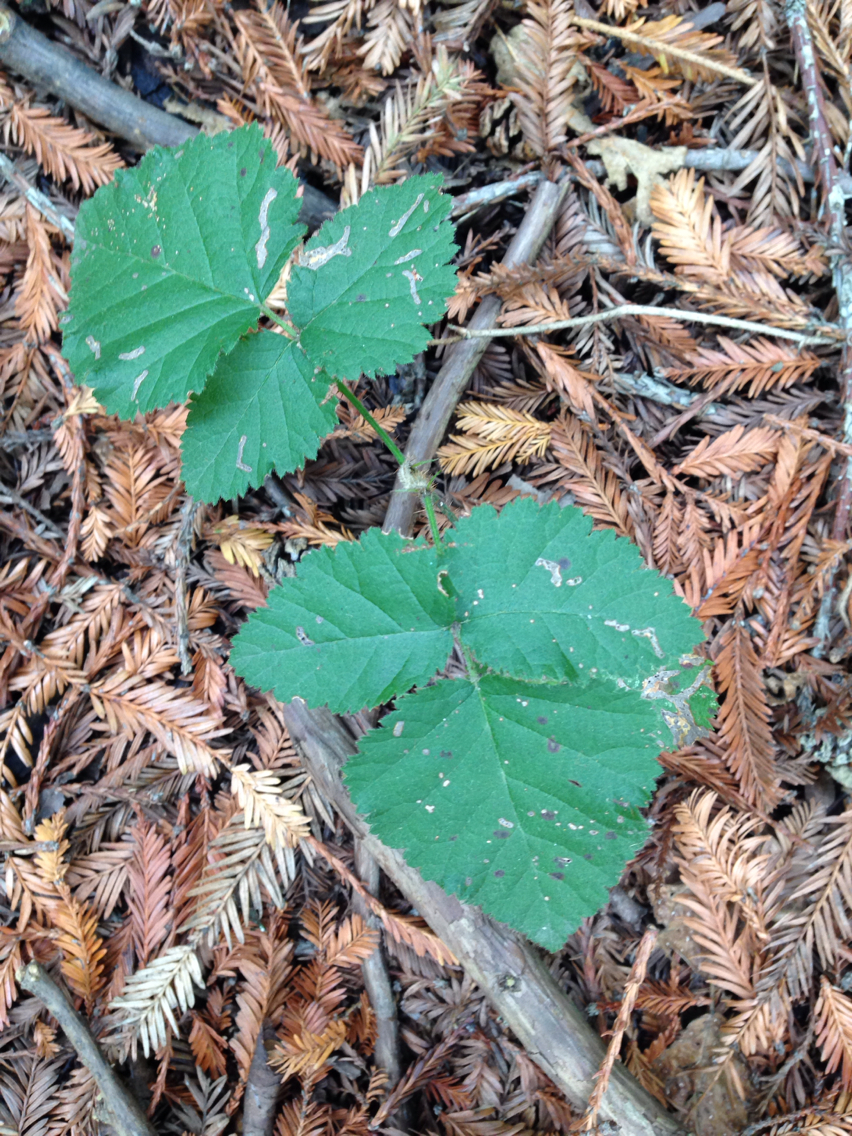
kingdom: Plantae
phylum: Tracheophyta
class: Magnoliopsida
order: Rosales
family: Rosaceae
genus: Rubus
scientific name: Rubus ursinus
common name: Pacific blackberry
